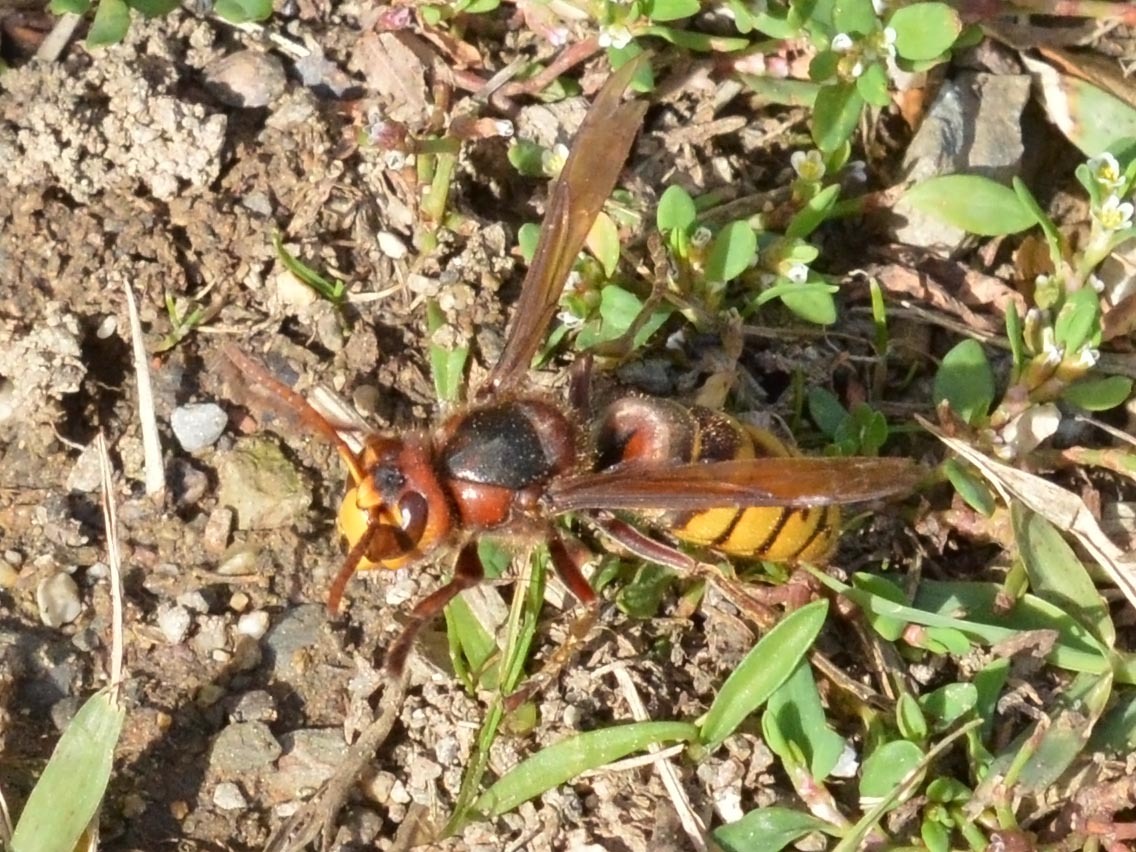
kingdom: Animalia
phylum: Arthropoda
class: Insecta
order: Hymenoptera
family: Vespidae
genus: Vespa
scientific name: Vespa crabro
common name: Hornet
